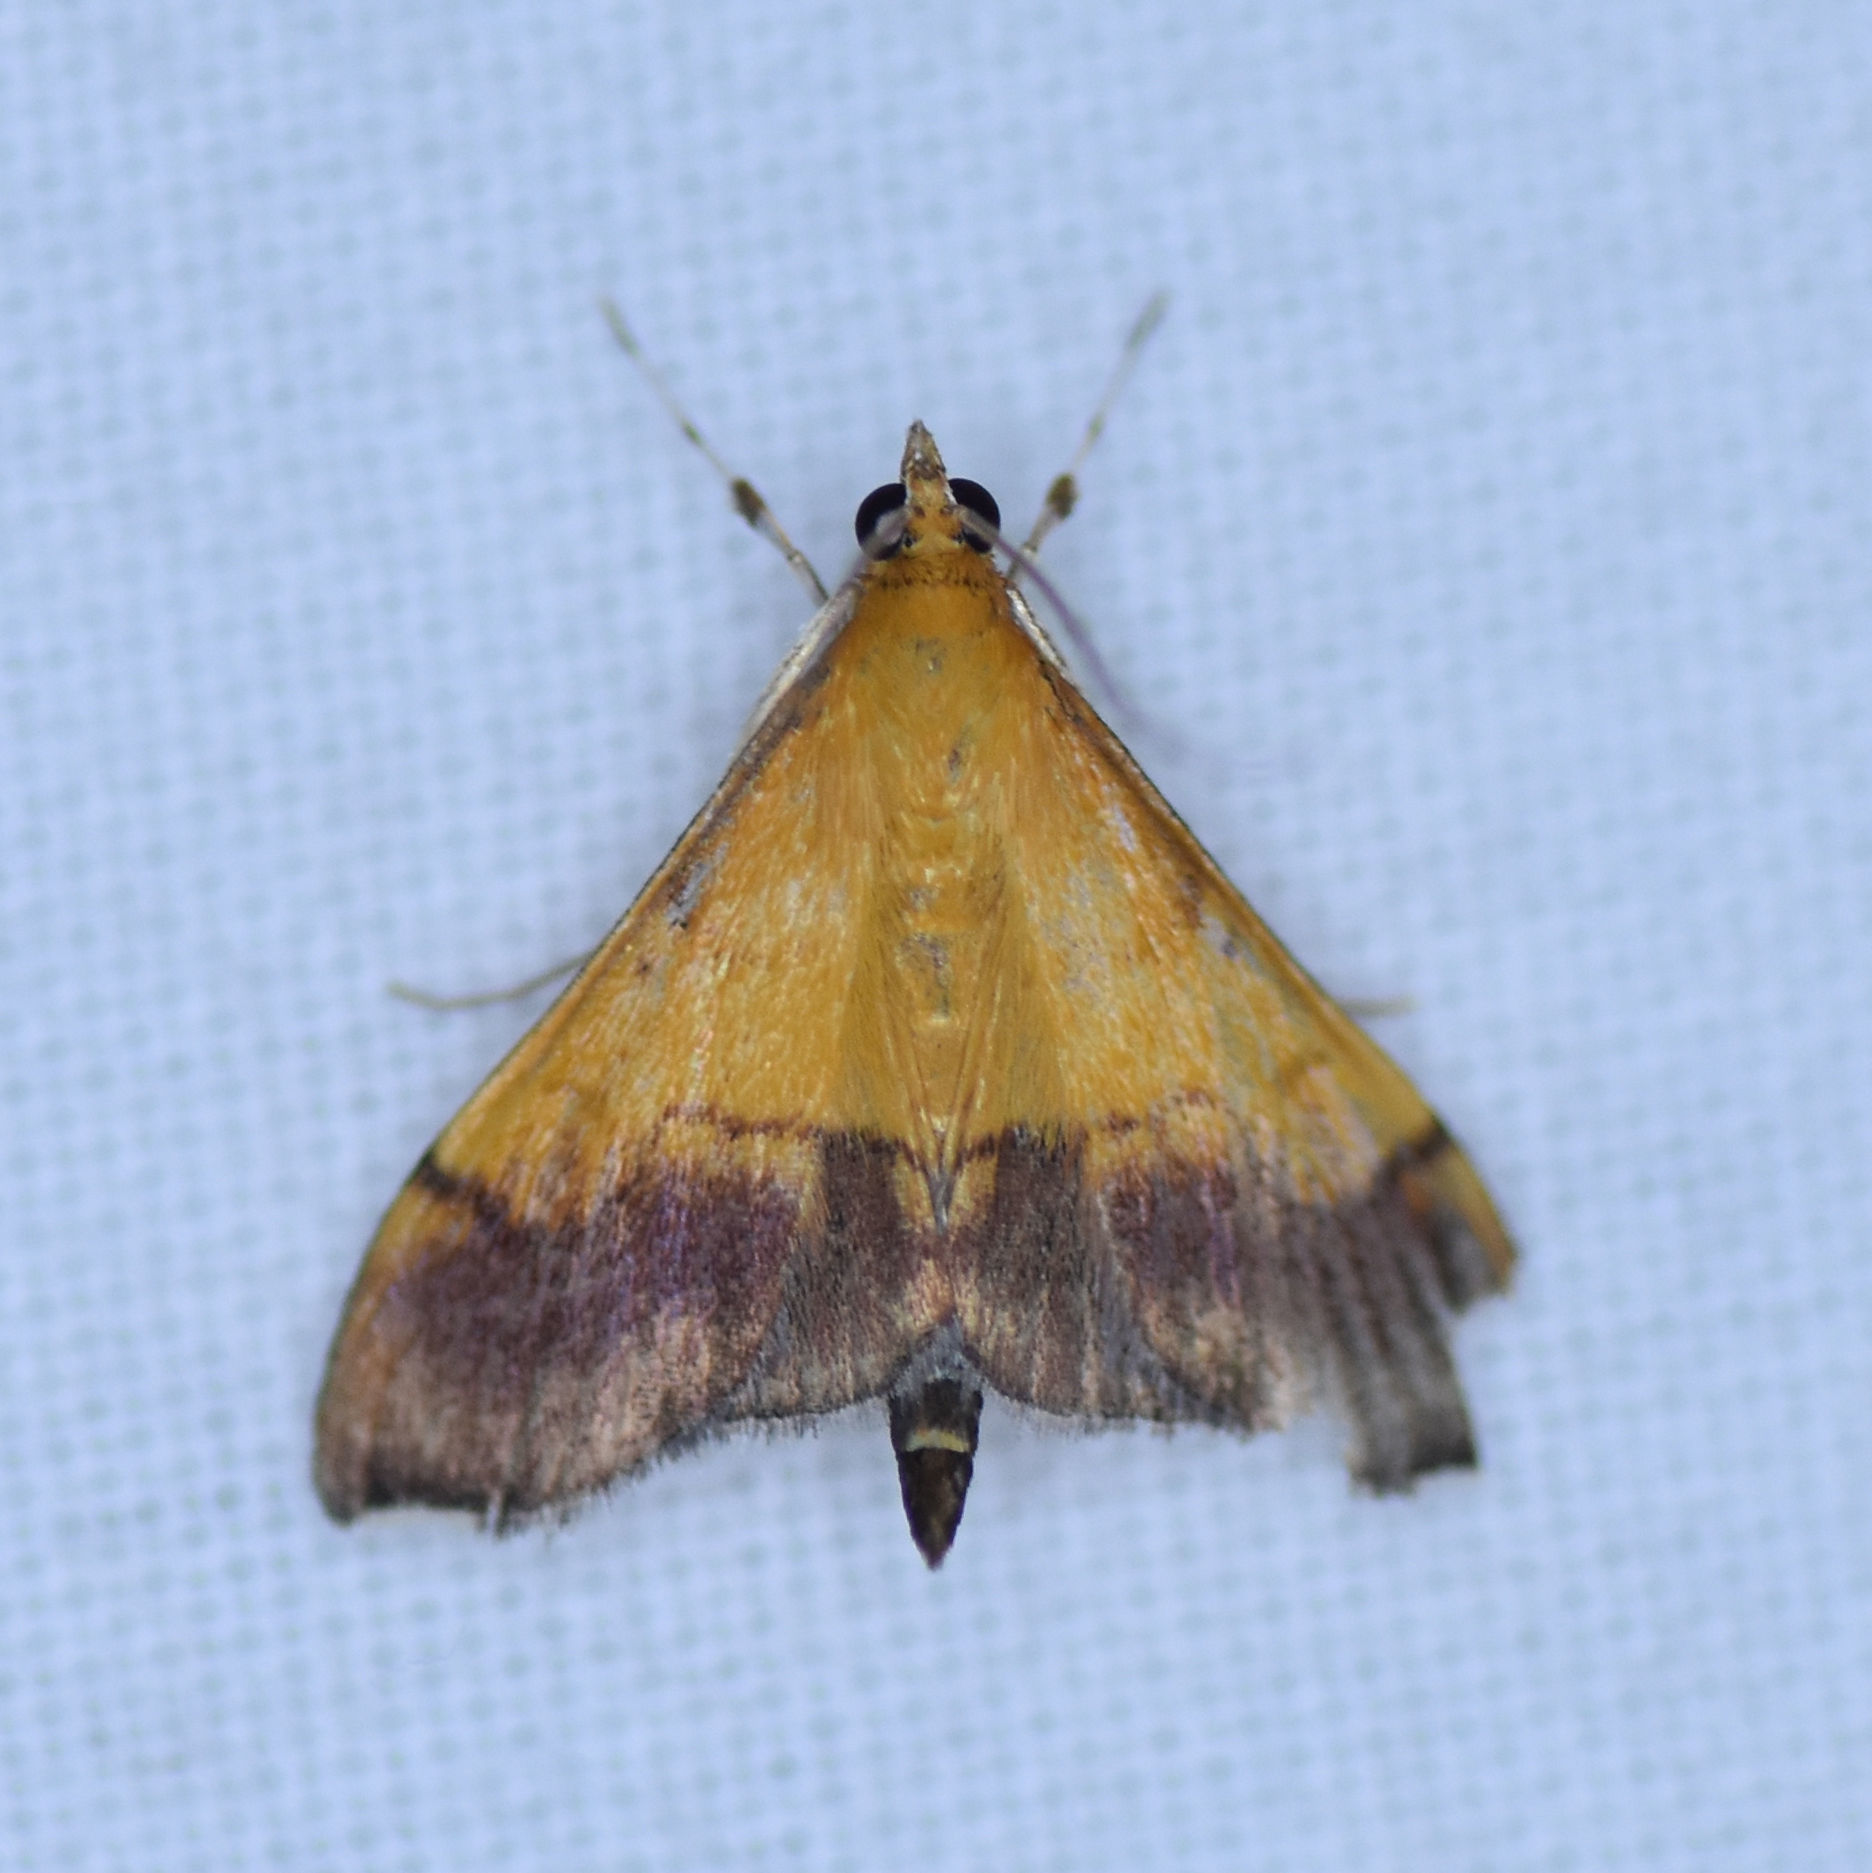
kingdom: Animalia
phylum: Arthropoda
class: Insecta
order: Lepidoptera
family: Crambidae
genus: Pyrausta
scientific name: Pyrausta bicoloralis
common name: Bicolored pyrausta moth
